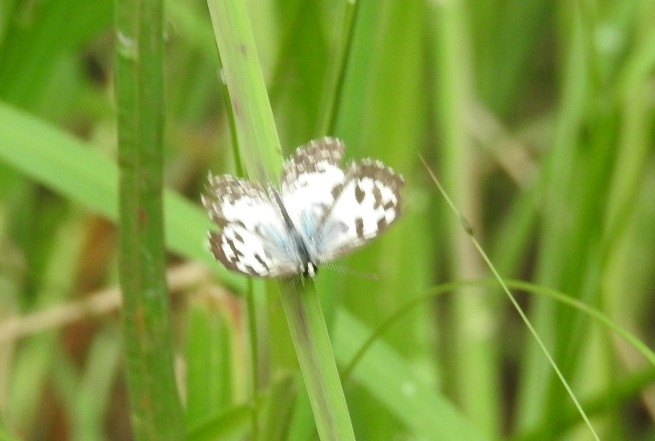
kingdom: Animalia
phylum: Arthropoda
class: Insecta
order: Lepidoptera
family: Lycaenidae
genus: Castalius
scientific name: Castalius rosimon
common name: Common pierrot
